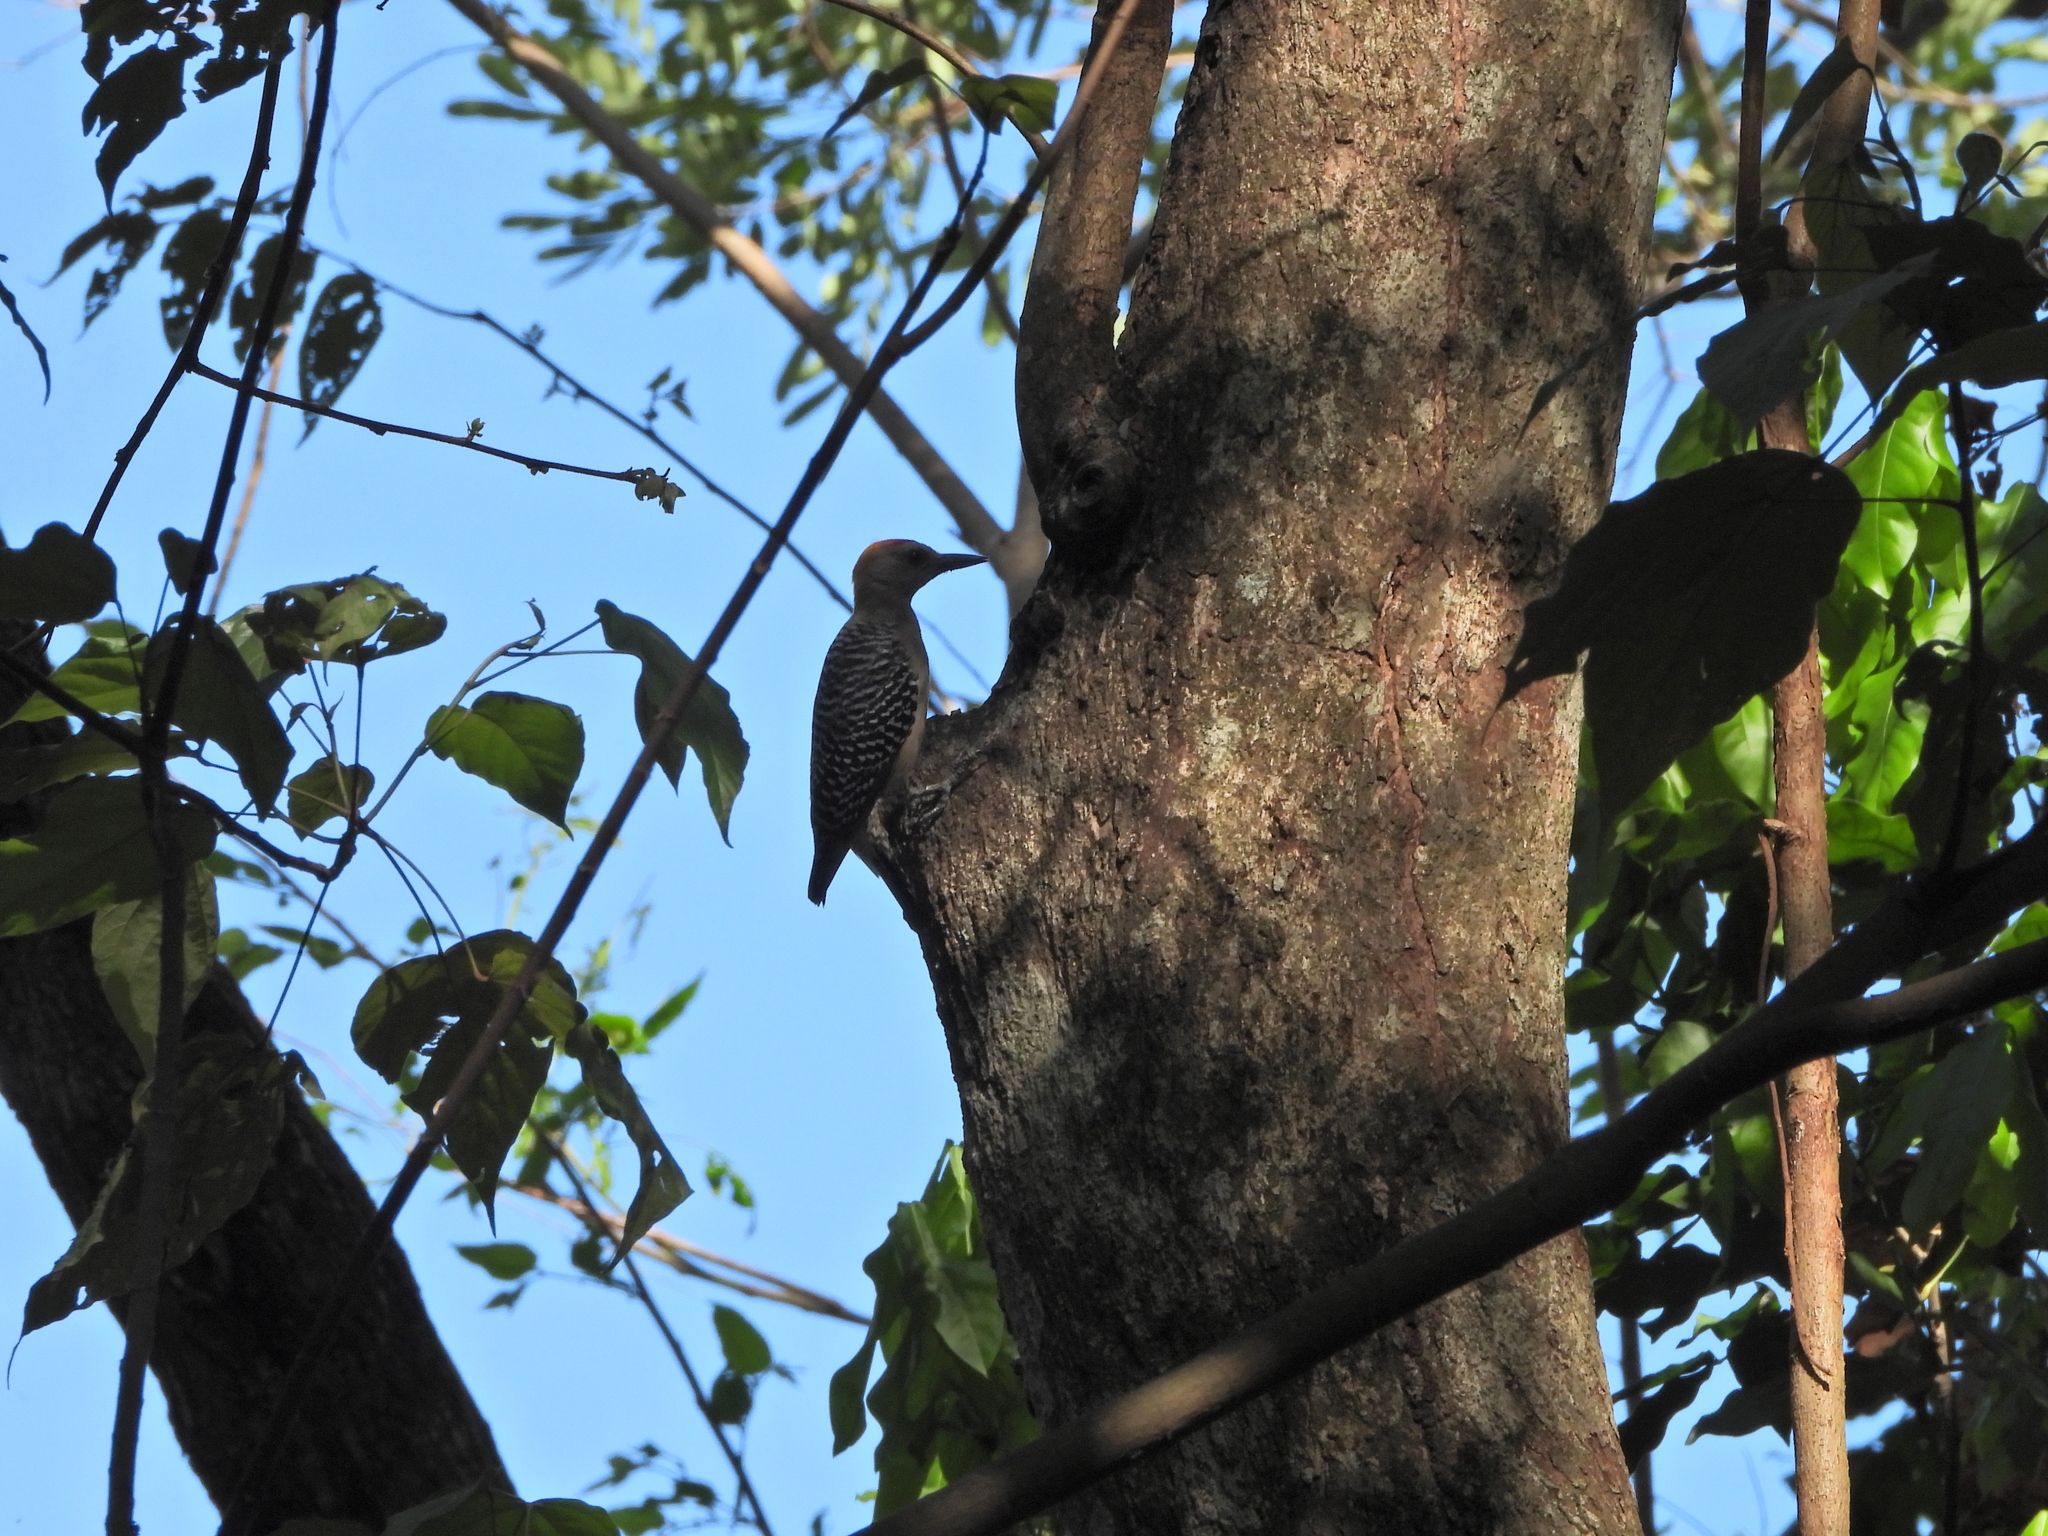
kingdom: Animalia
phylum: Chordata
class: Aves
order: Piciformes
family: Picidae
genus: Melanerpes
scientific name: Melanerpes hoffmannii
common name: Hoffmann's woodpecker
